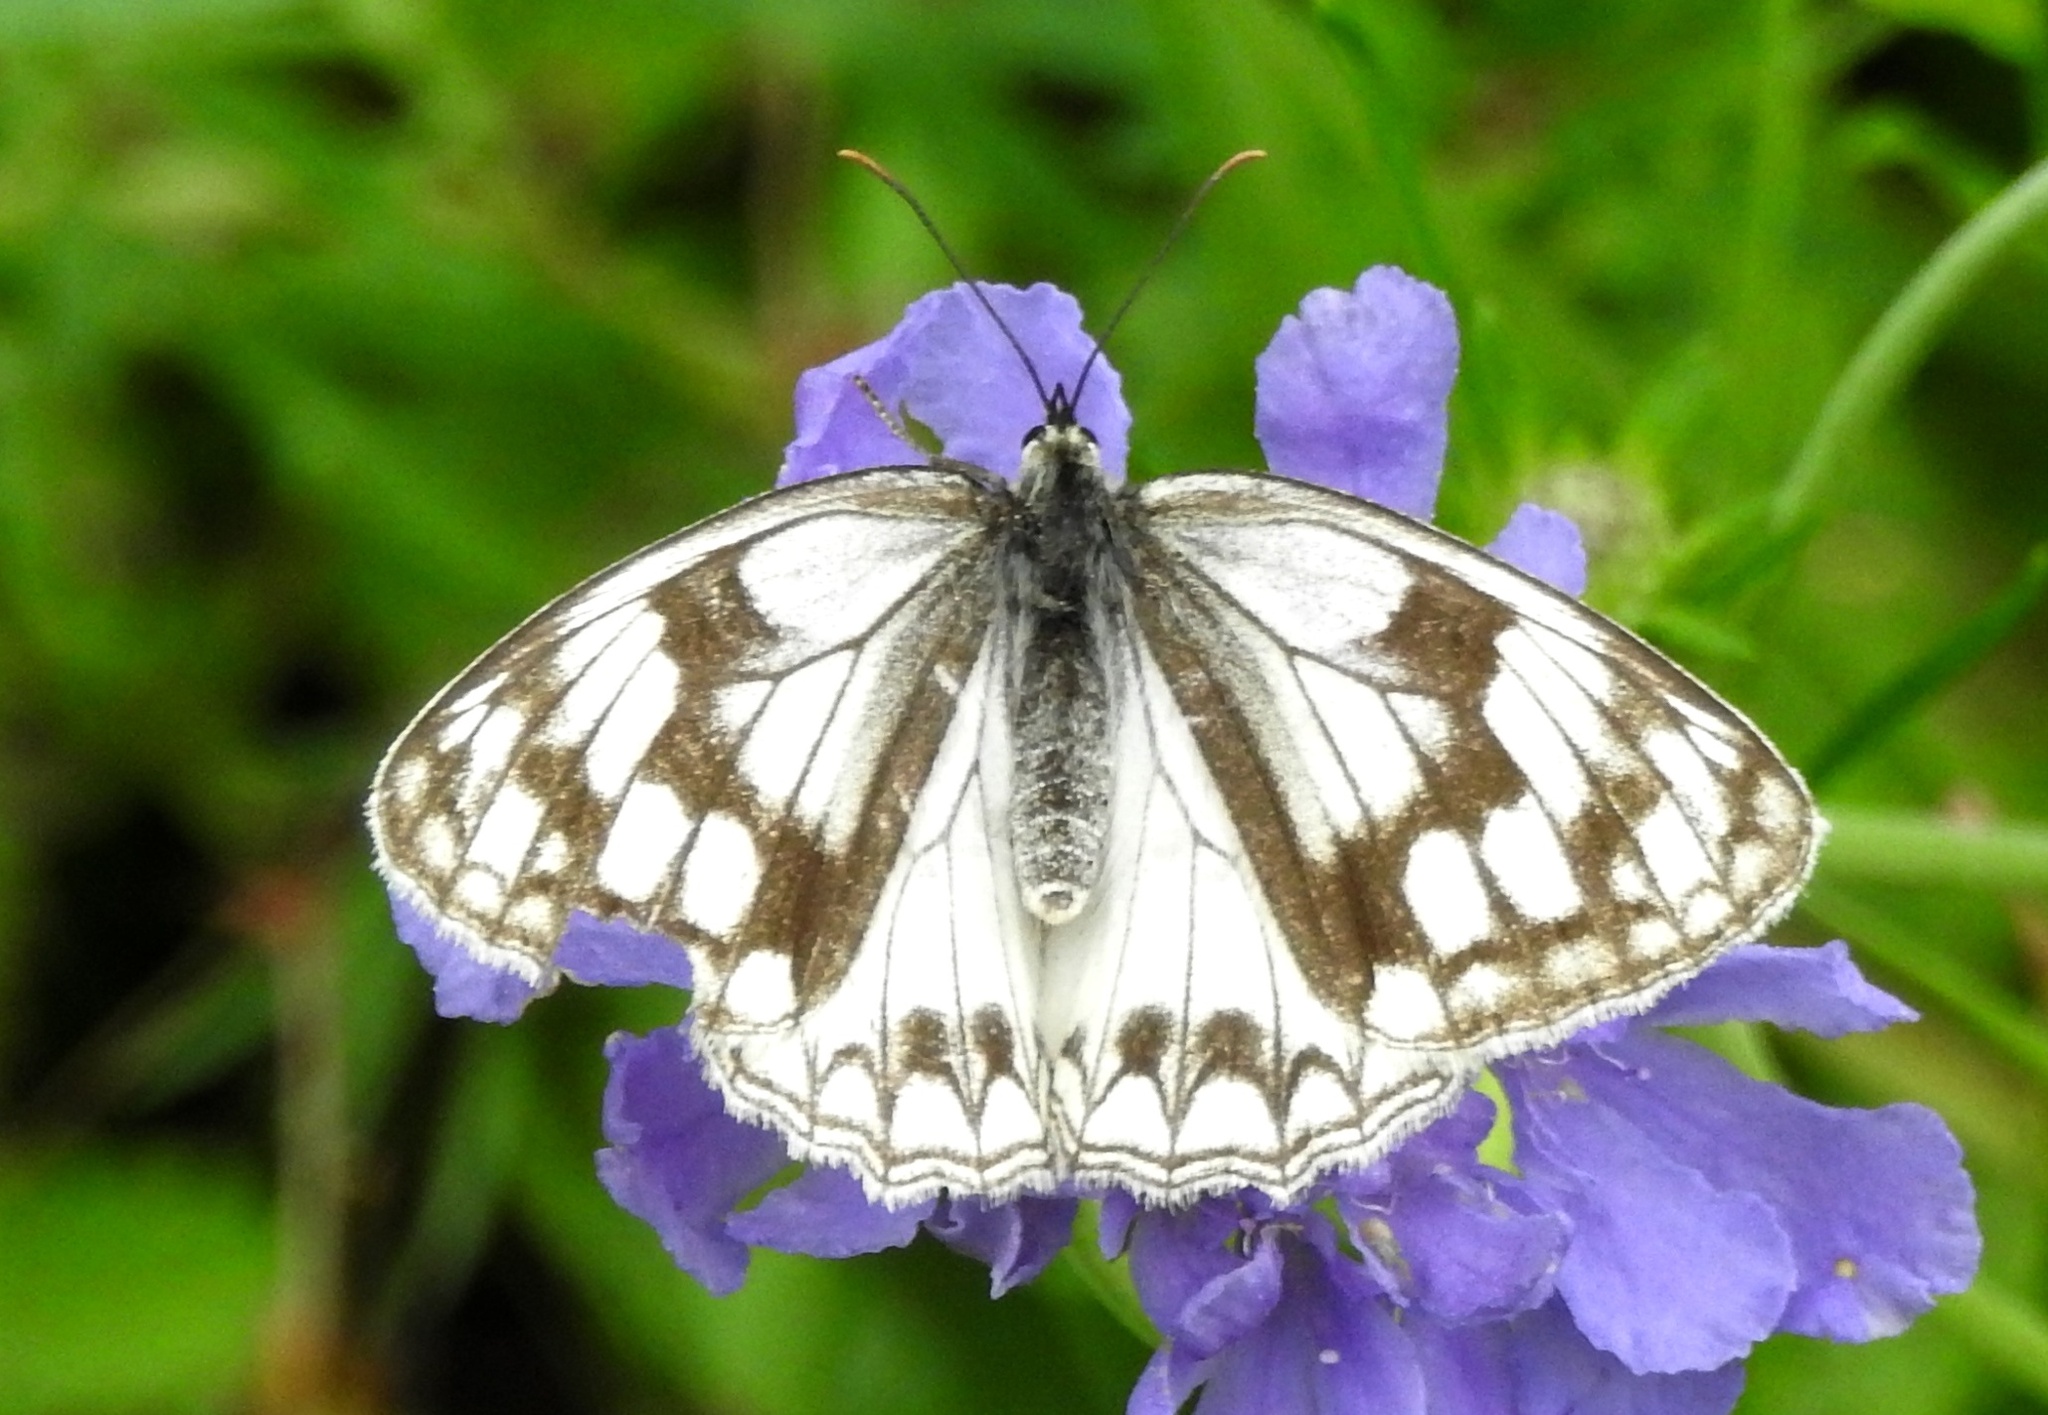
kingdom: Animalia
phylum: Arthropoda
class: Insecta
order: Lepidoptera
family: Nymphalidae
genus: Melanargia
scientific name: Melanargia halimede
